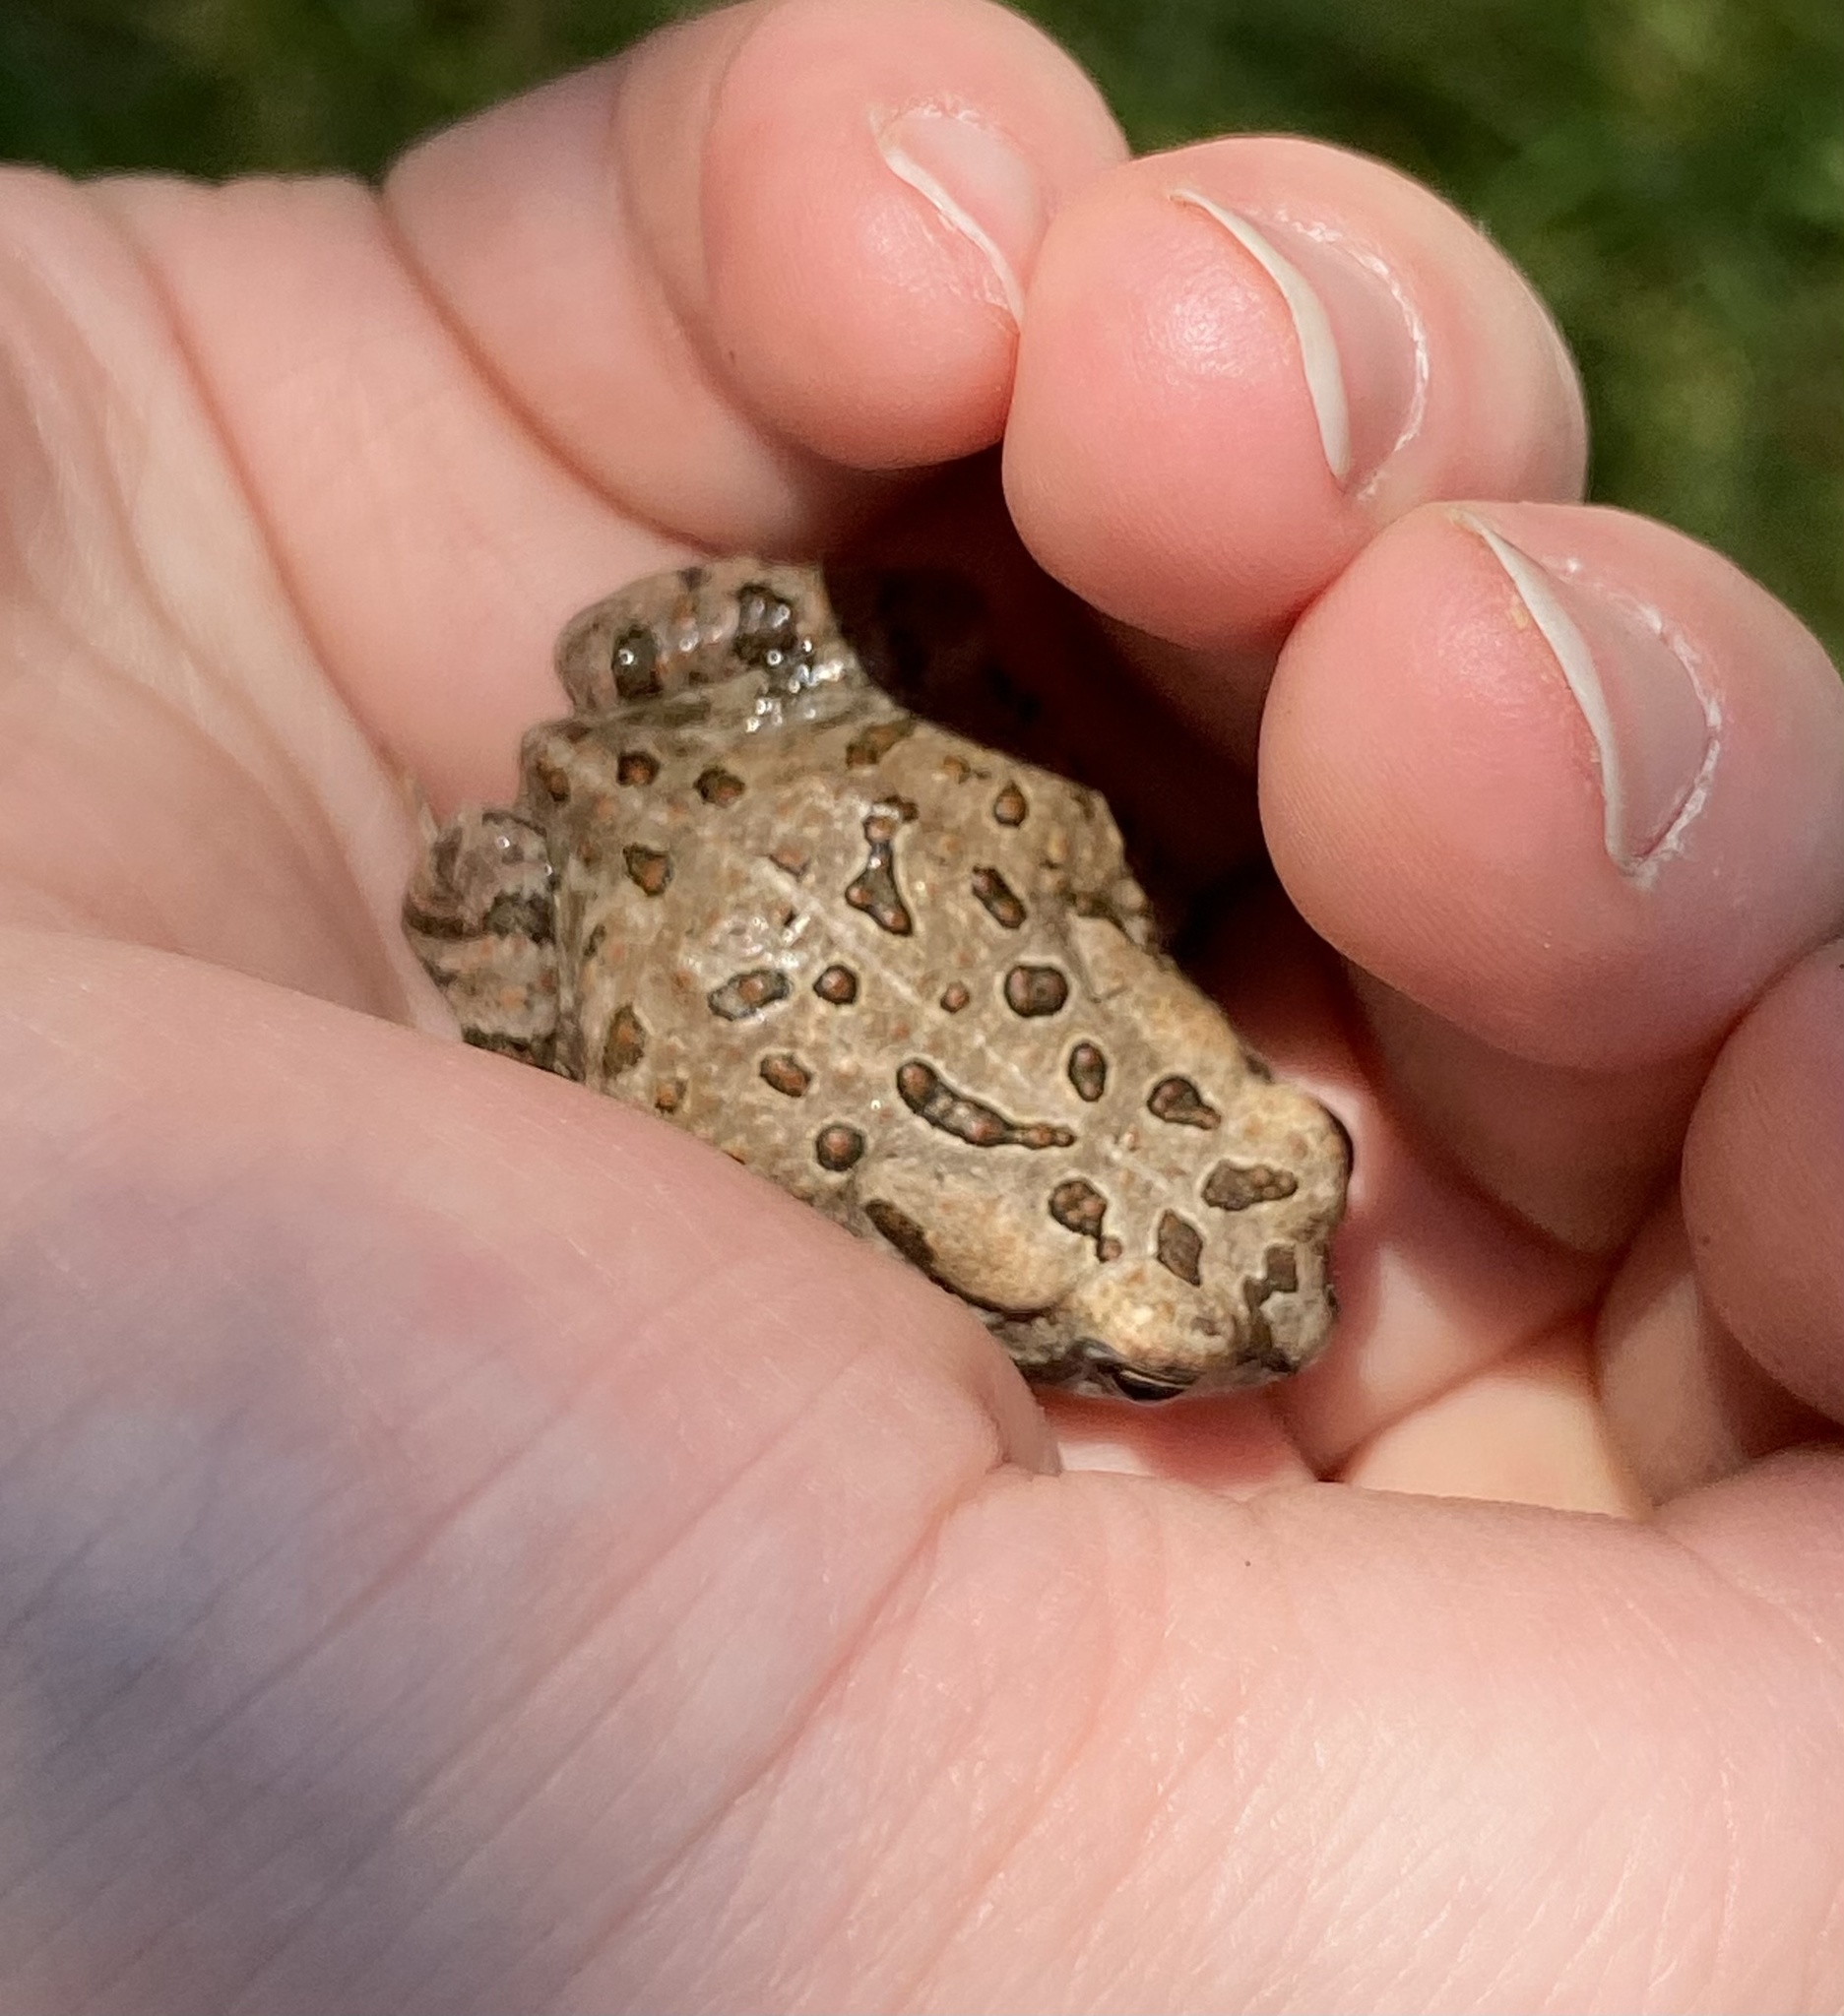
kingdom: Animalia
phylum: Chordata
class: Amphibia
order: Anura
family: Bufonidae
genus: Anaxyrus
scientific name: Anaxyrus fowleri
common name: Fowler's toad
